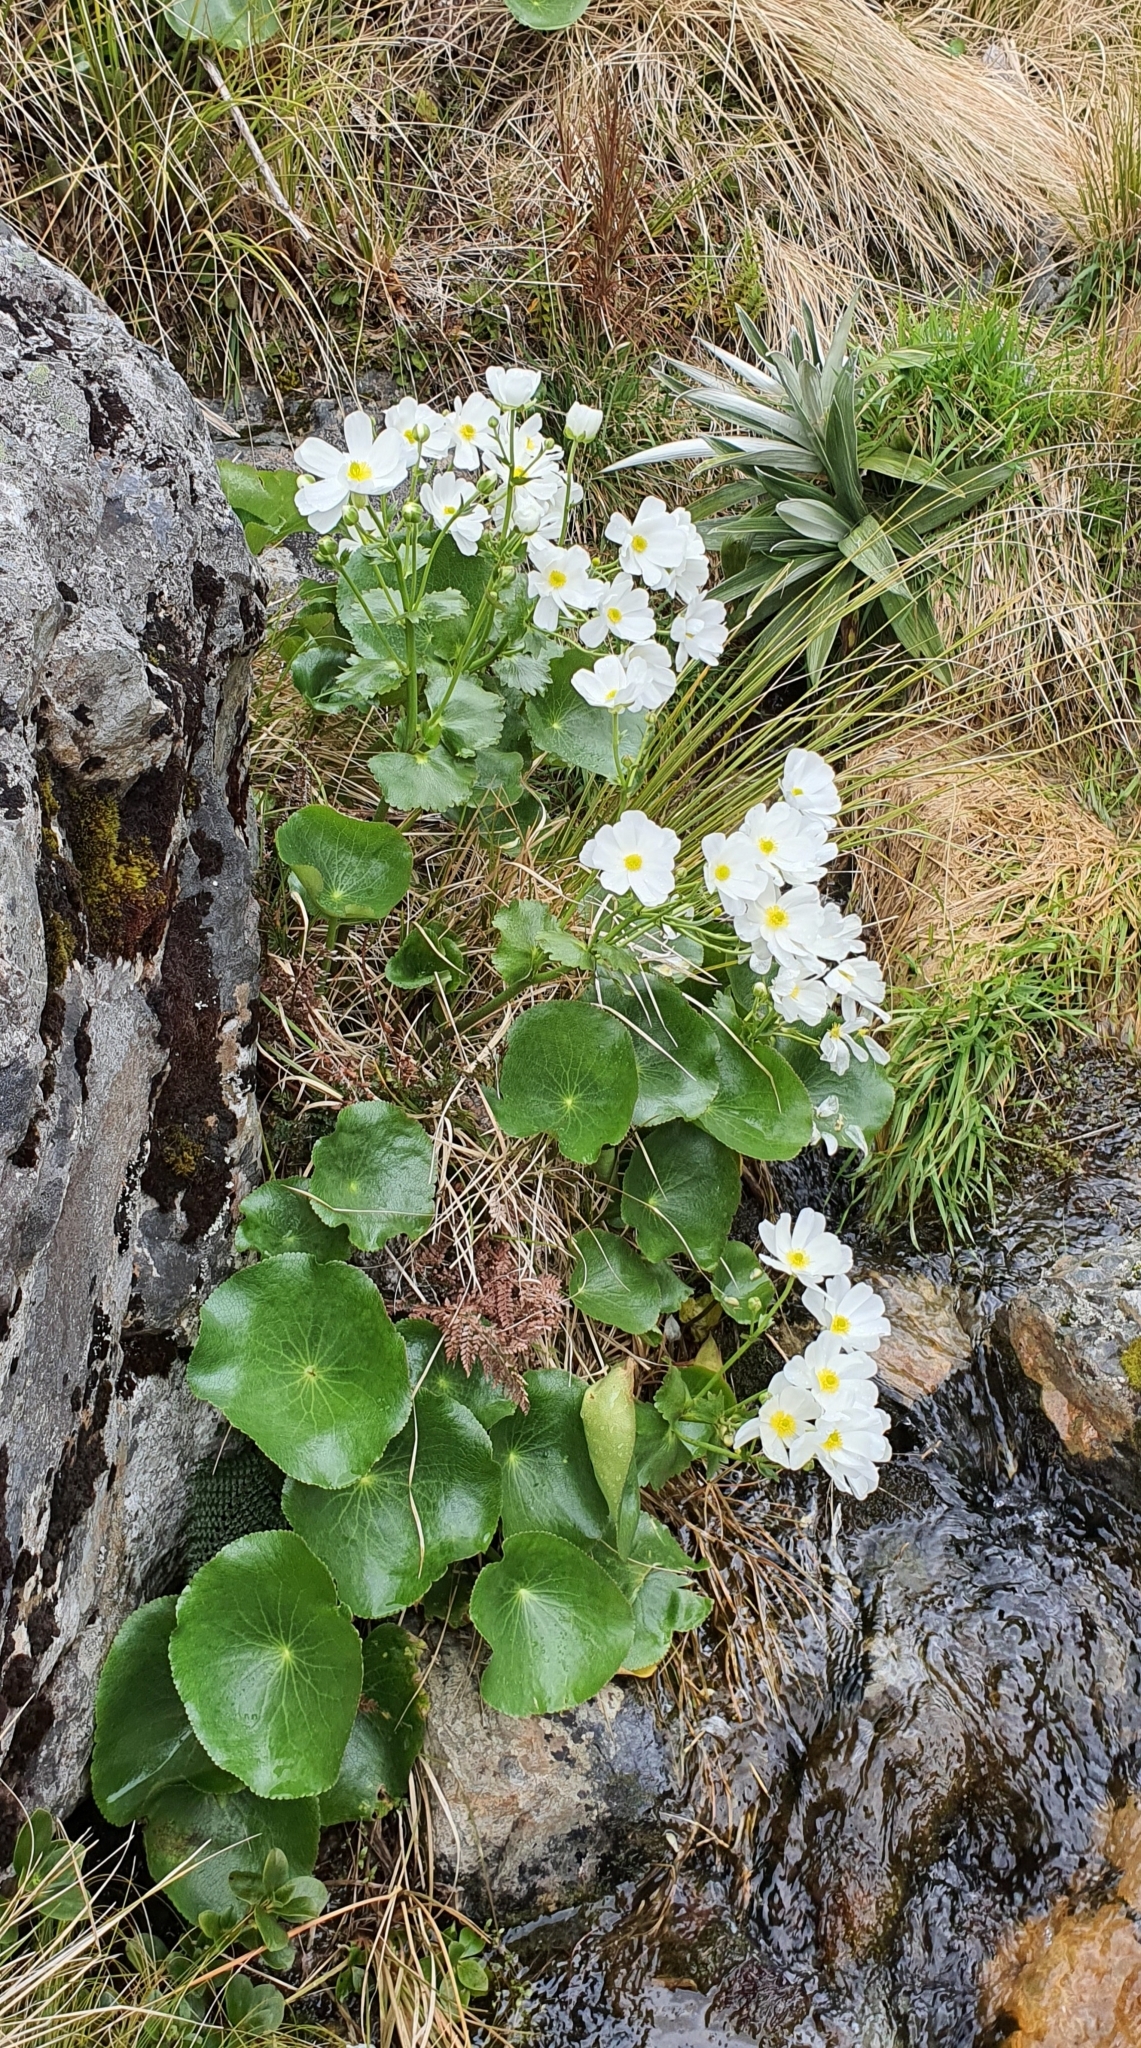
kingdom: Plantae
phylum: Tracheophyta
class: Magnoliopsida
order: Ranunculales
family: Ranunculaceae
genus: Ranunculus
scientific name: Ranunculus lyallii
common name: Mountain-lily
